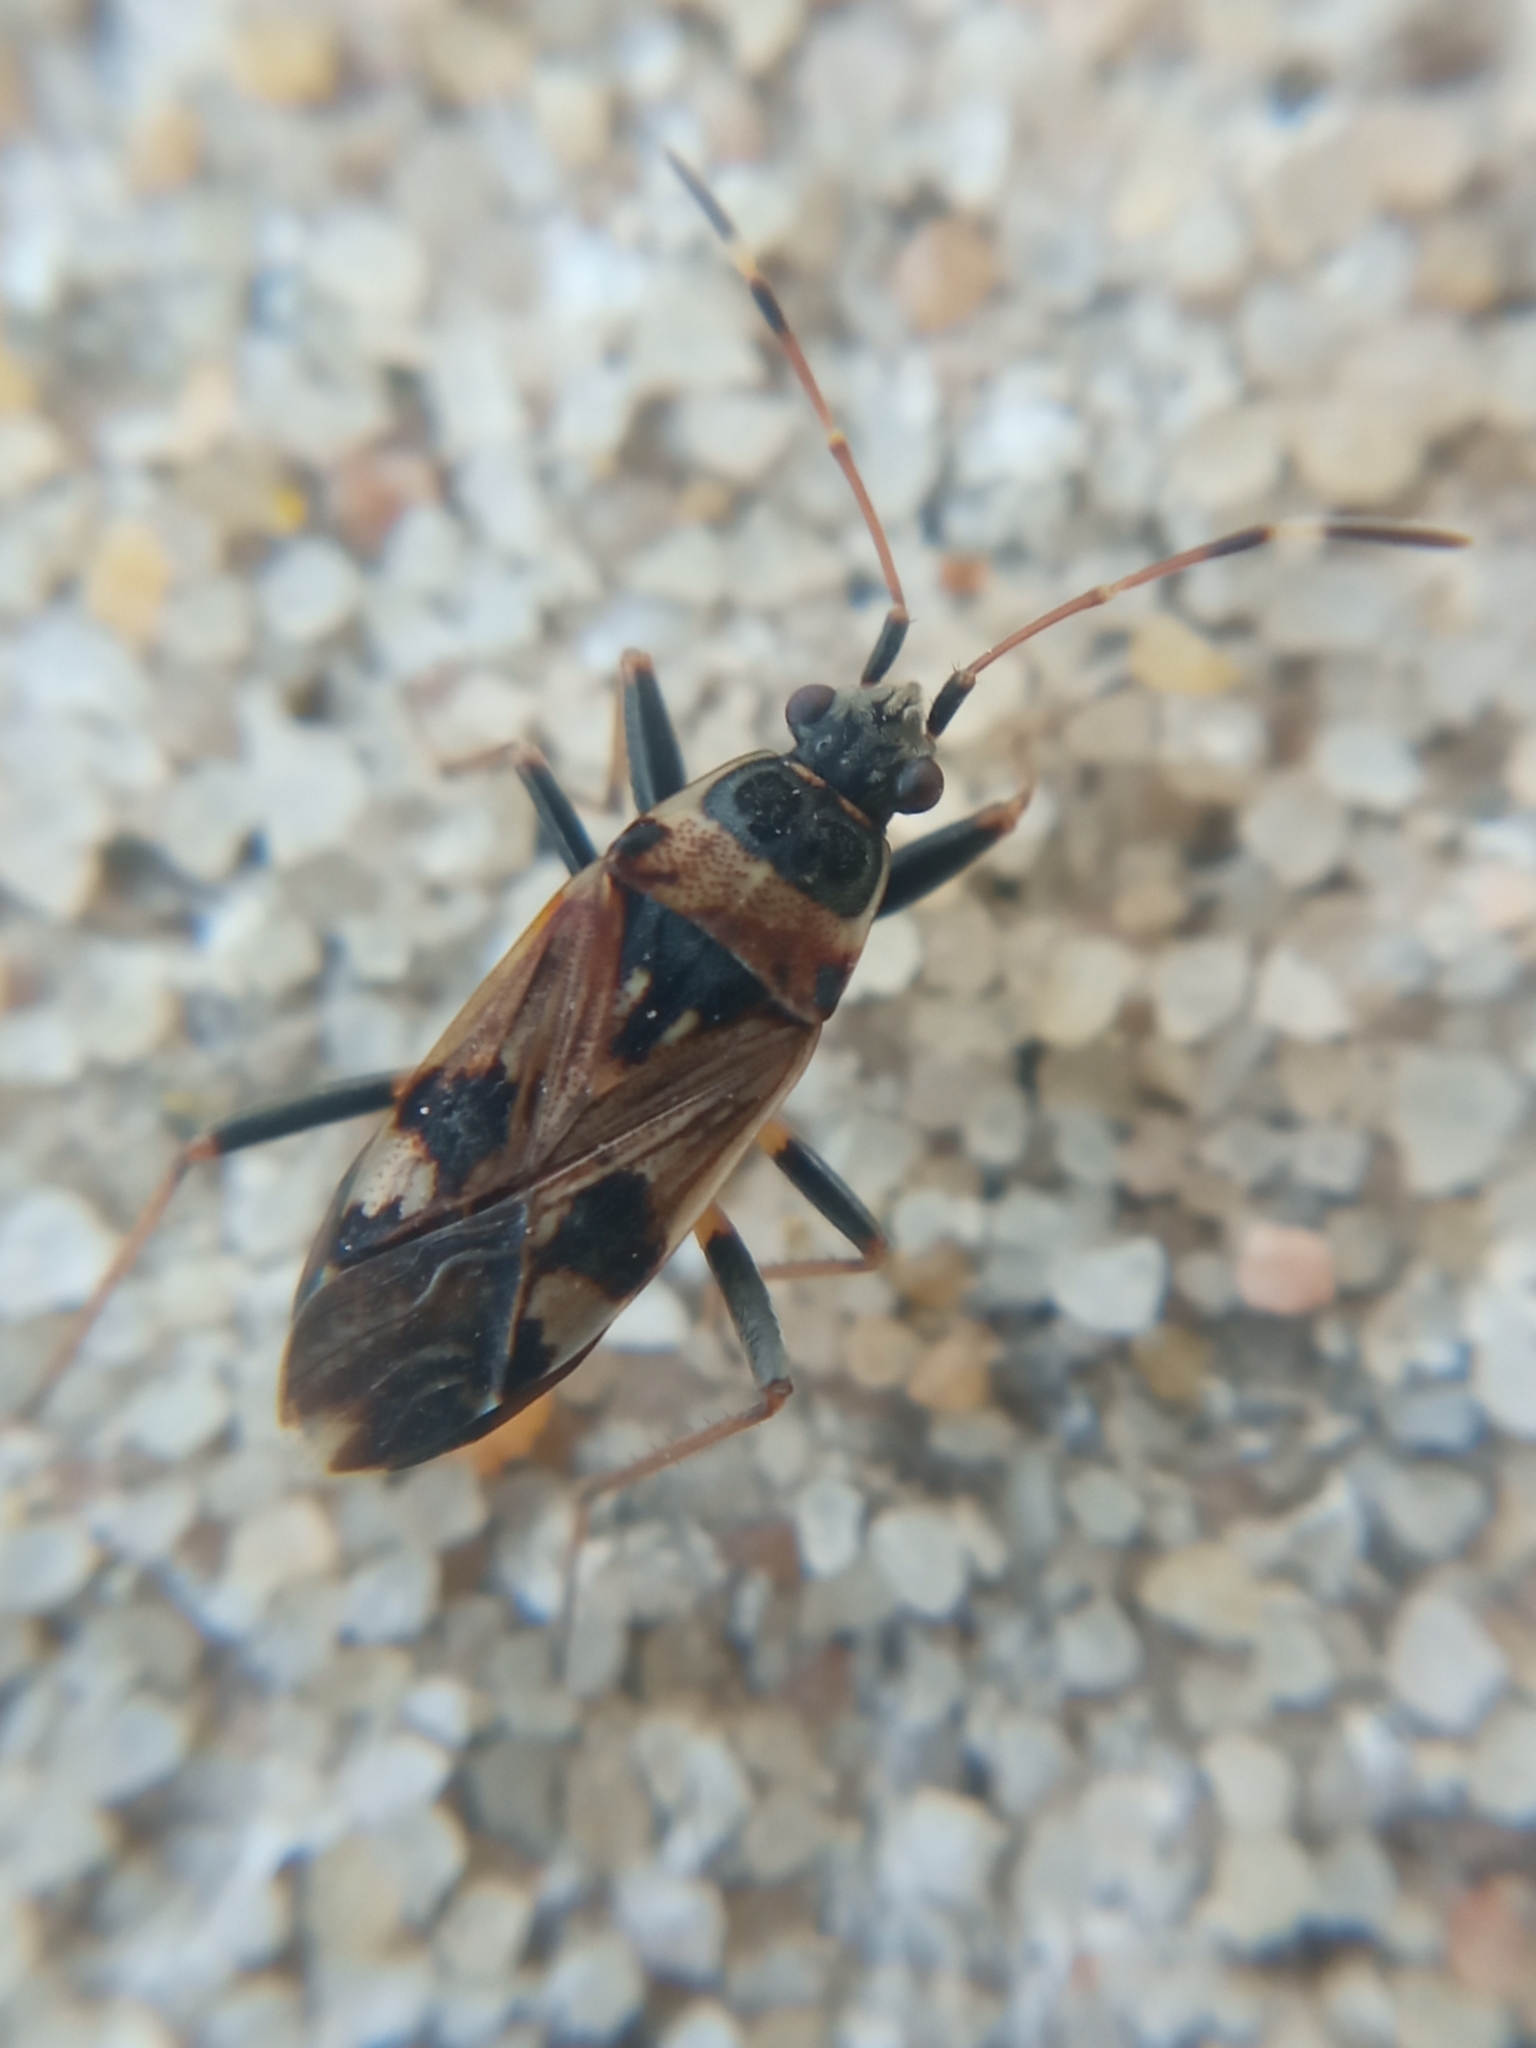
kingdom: Animalia
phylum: Arthropoda
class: Insecta
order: Hemiptera
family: Rhyparochromidae
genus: Beosus
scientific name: Beosus maritimus
